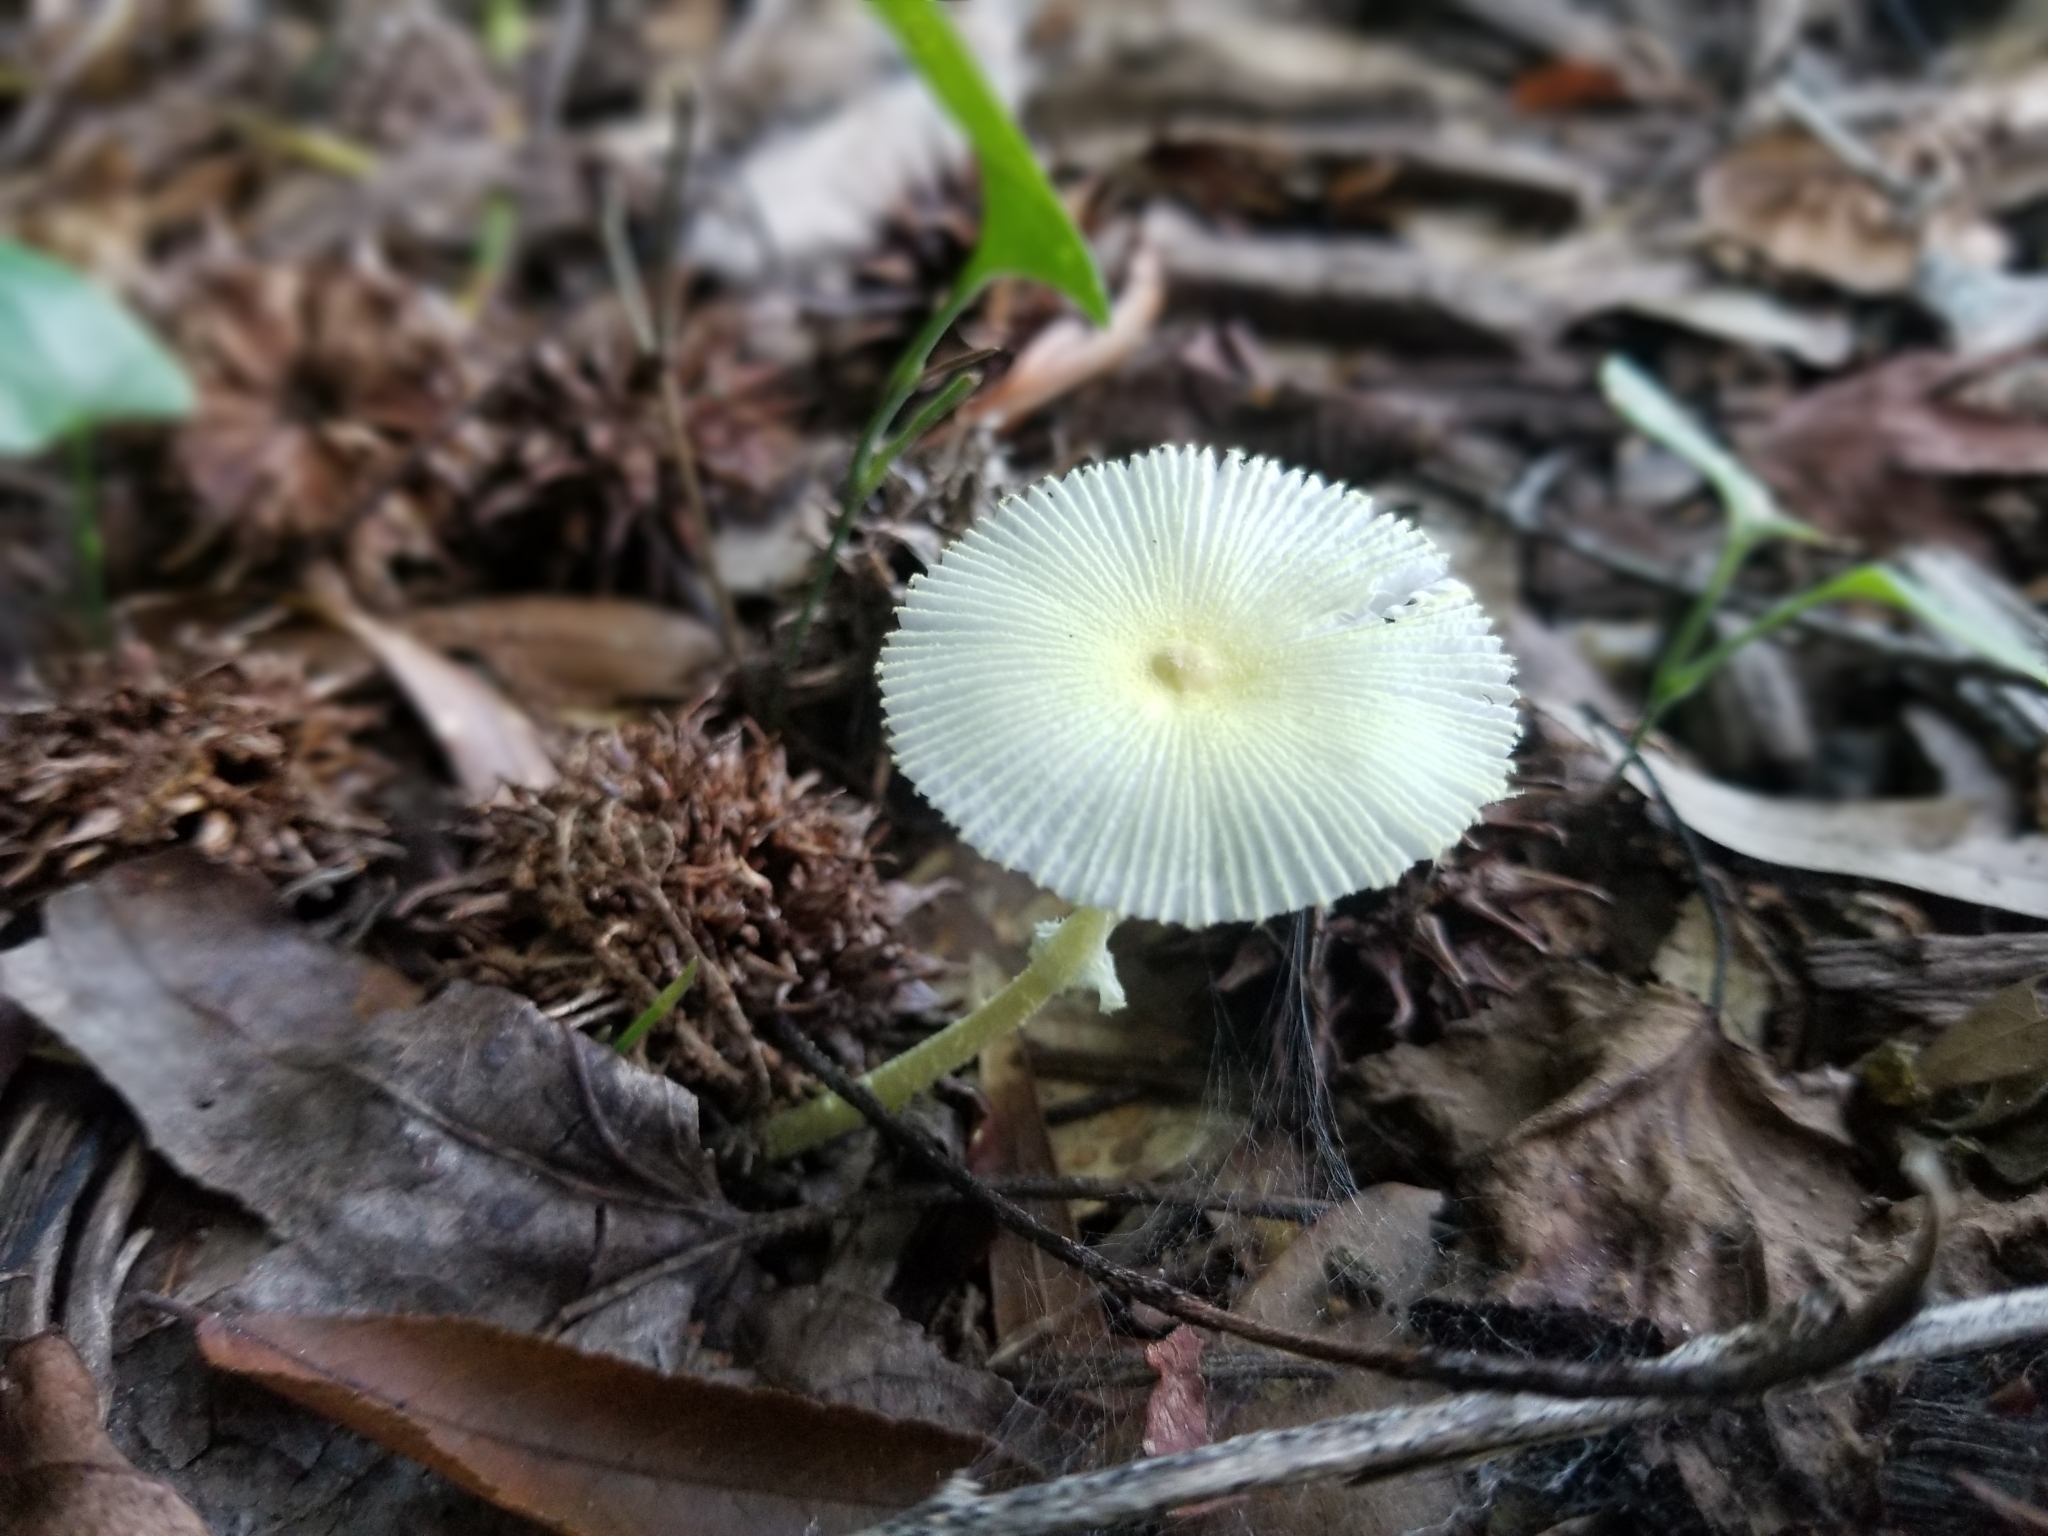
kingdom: Fungi
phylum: Basidiomycota
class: Agaricomycetes
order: Agaricales
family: Agaricaceae
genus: Leucocoprinus
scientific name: Leucocoprinus fragilissimus
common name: Fragile dapperling
